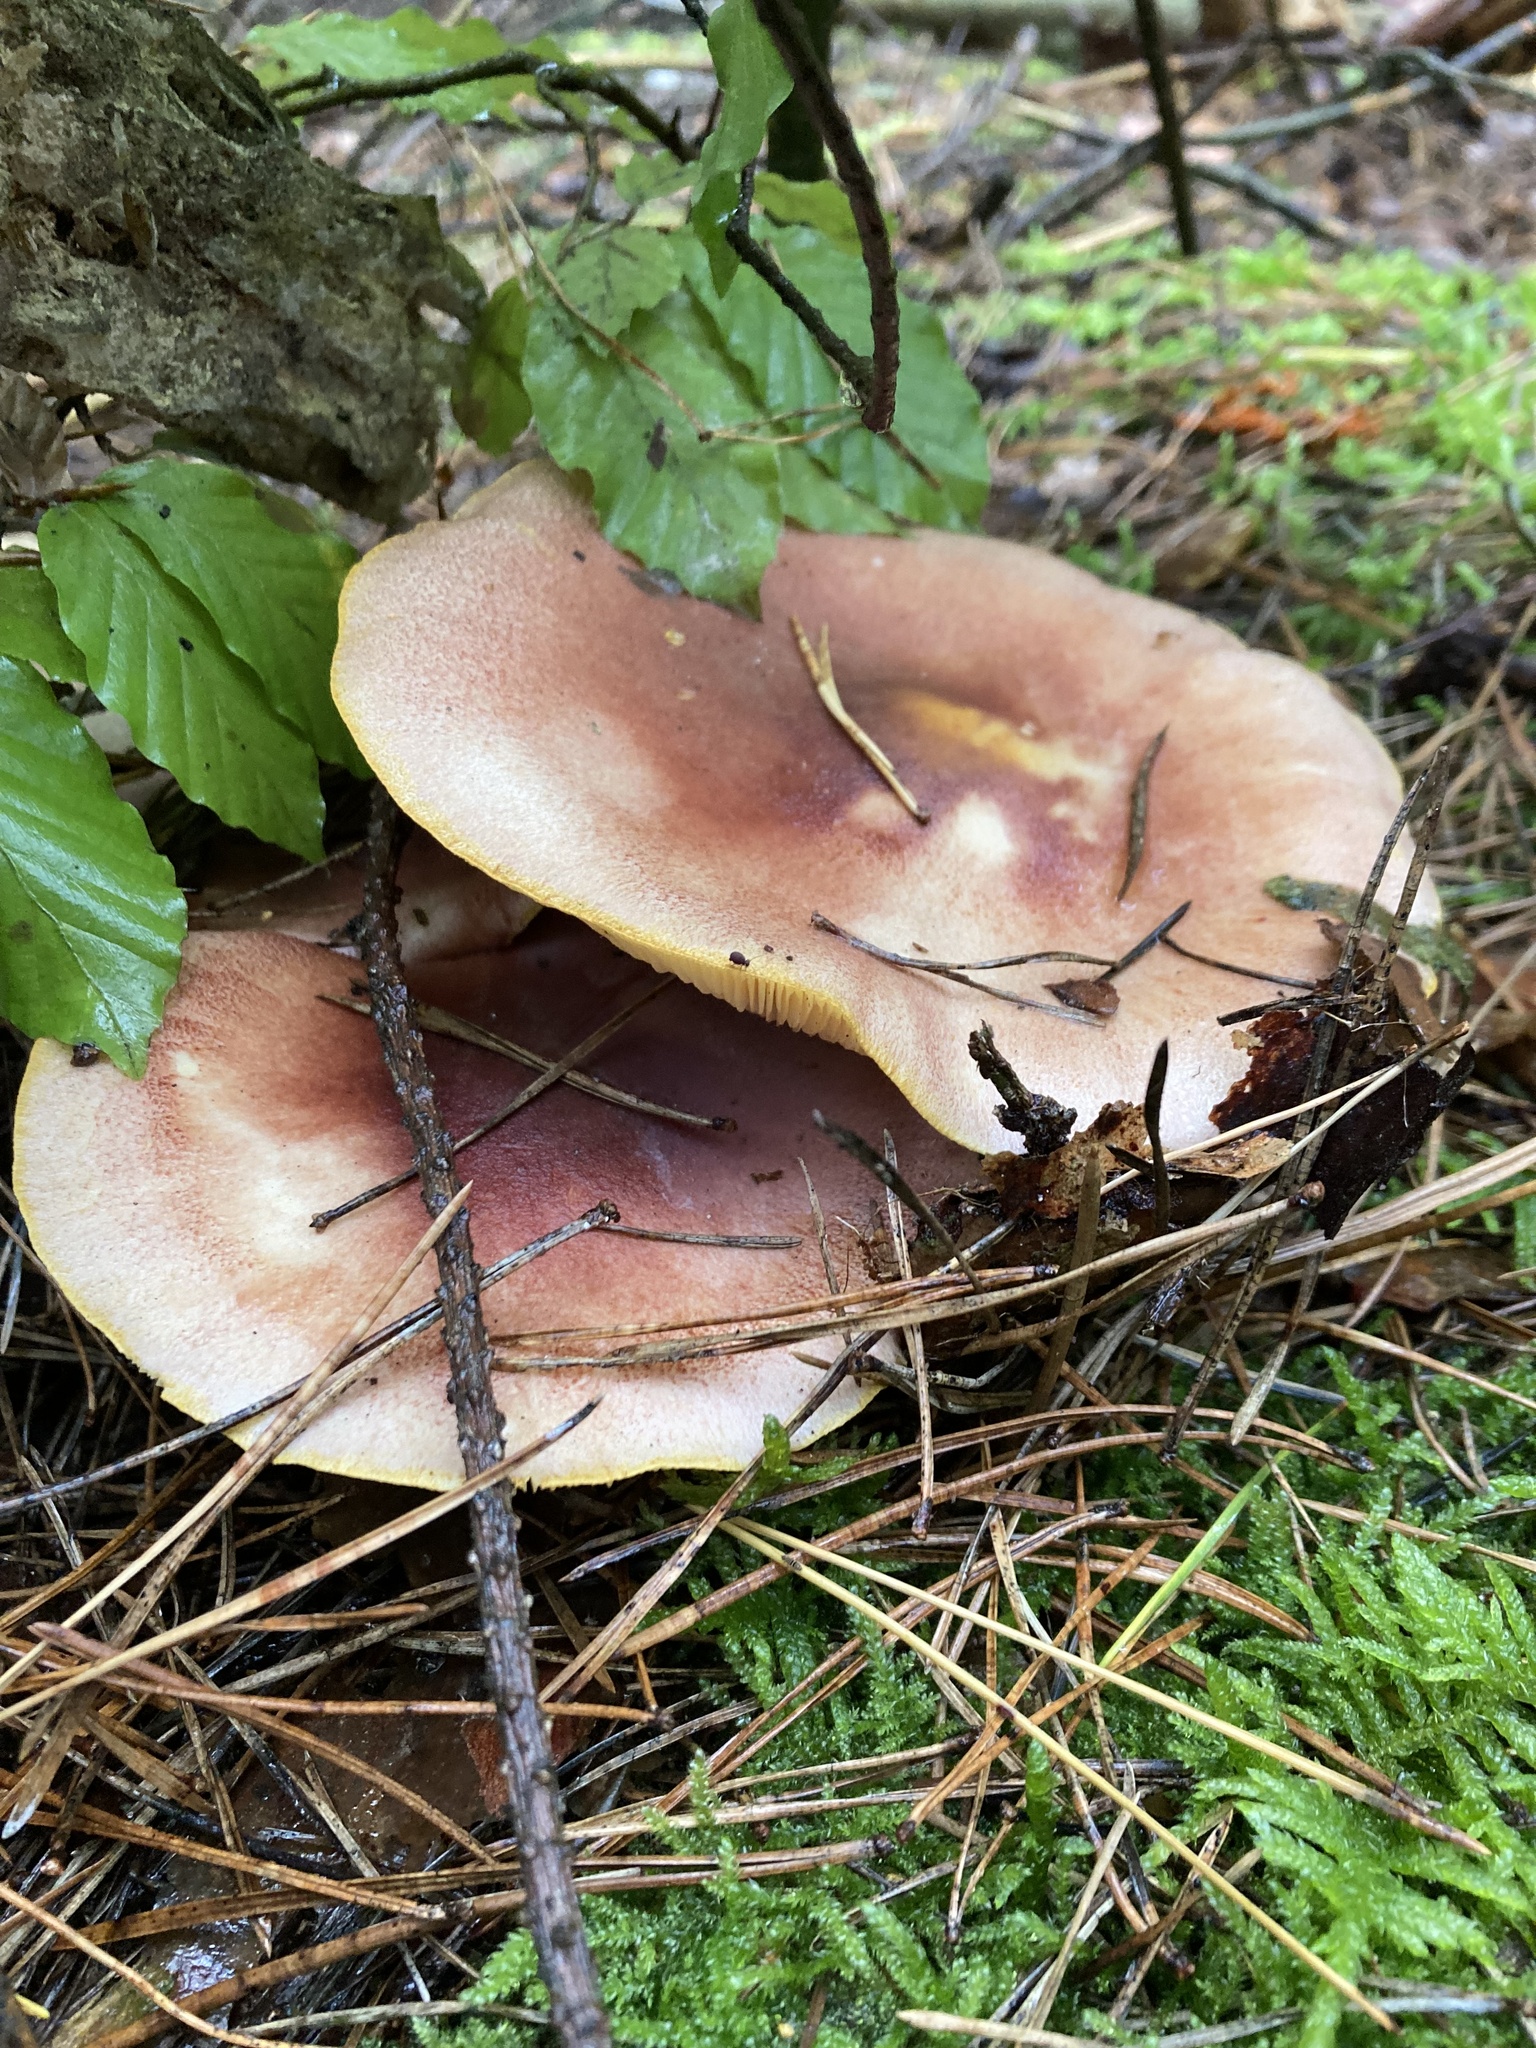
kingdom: Fungi
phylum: Basidiomycota
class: Agaricomycetes
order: Agaricales
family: Tricholomataceae
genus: Tricholomopsis
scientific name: Tricholomopsis rutilans
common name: Plums and custard
